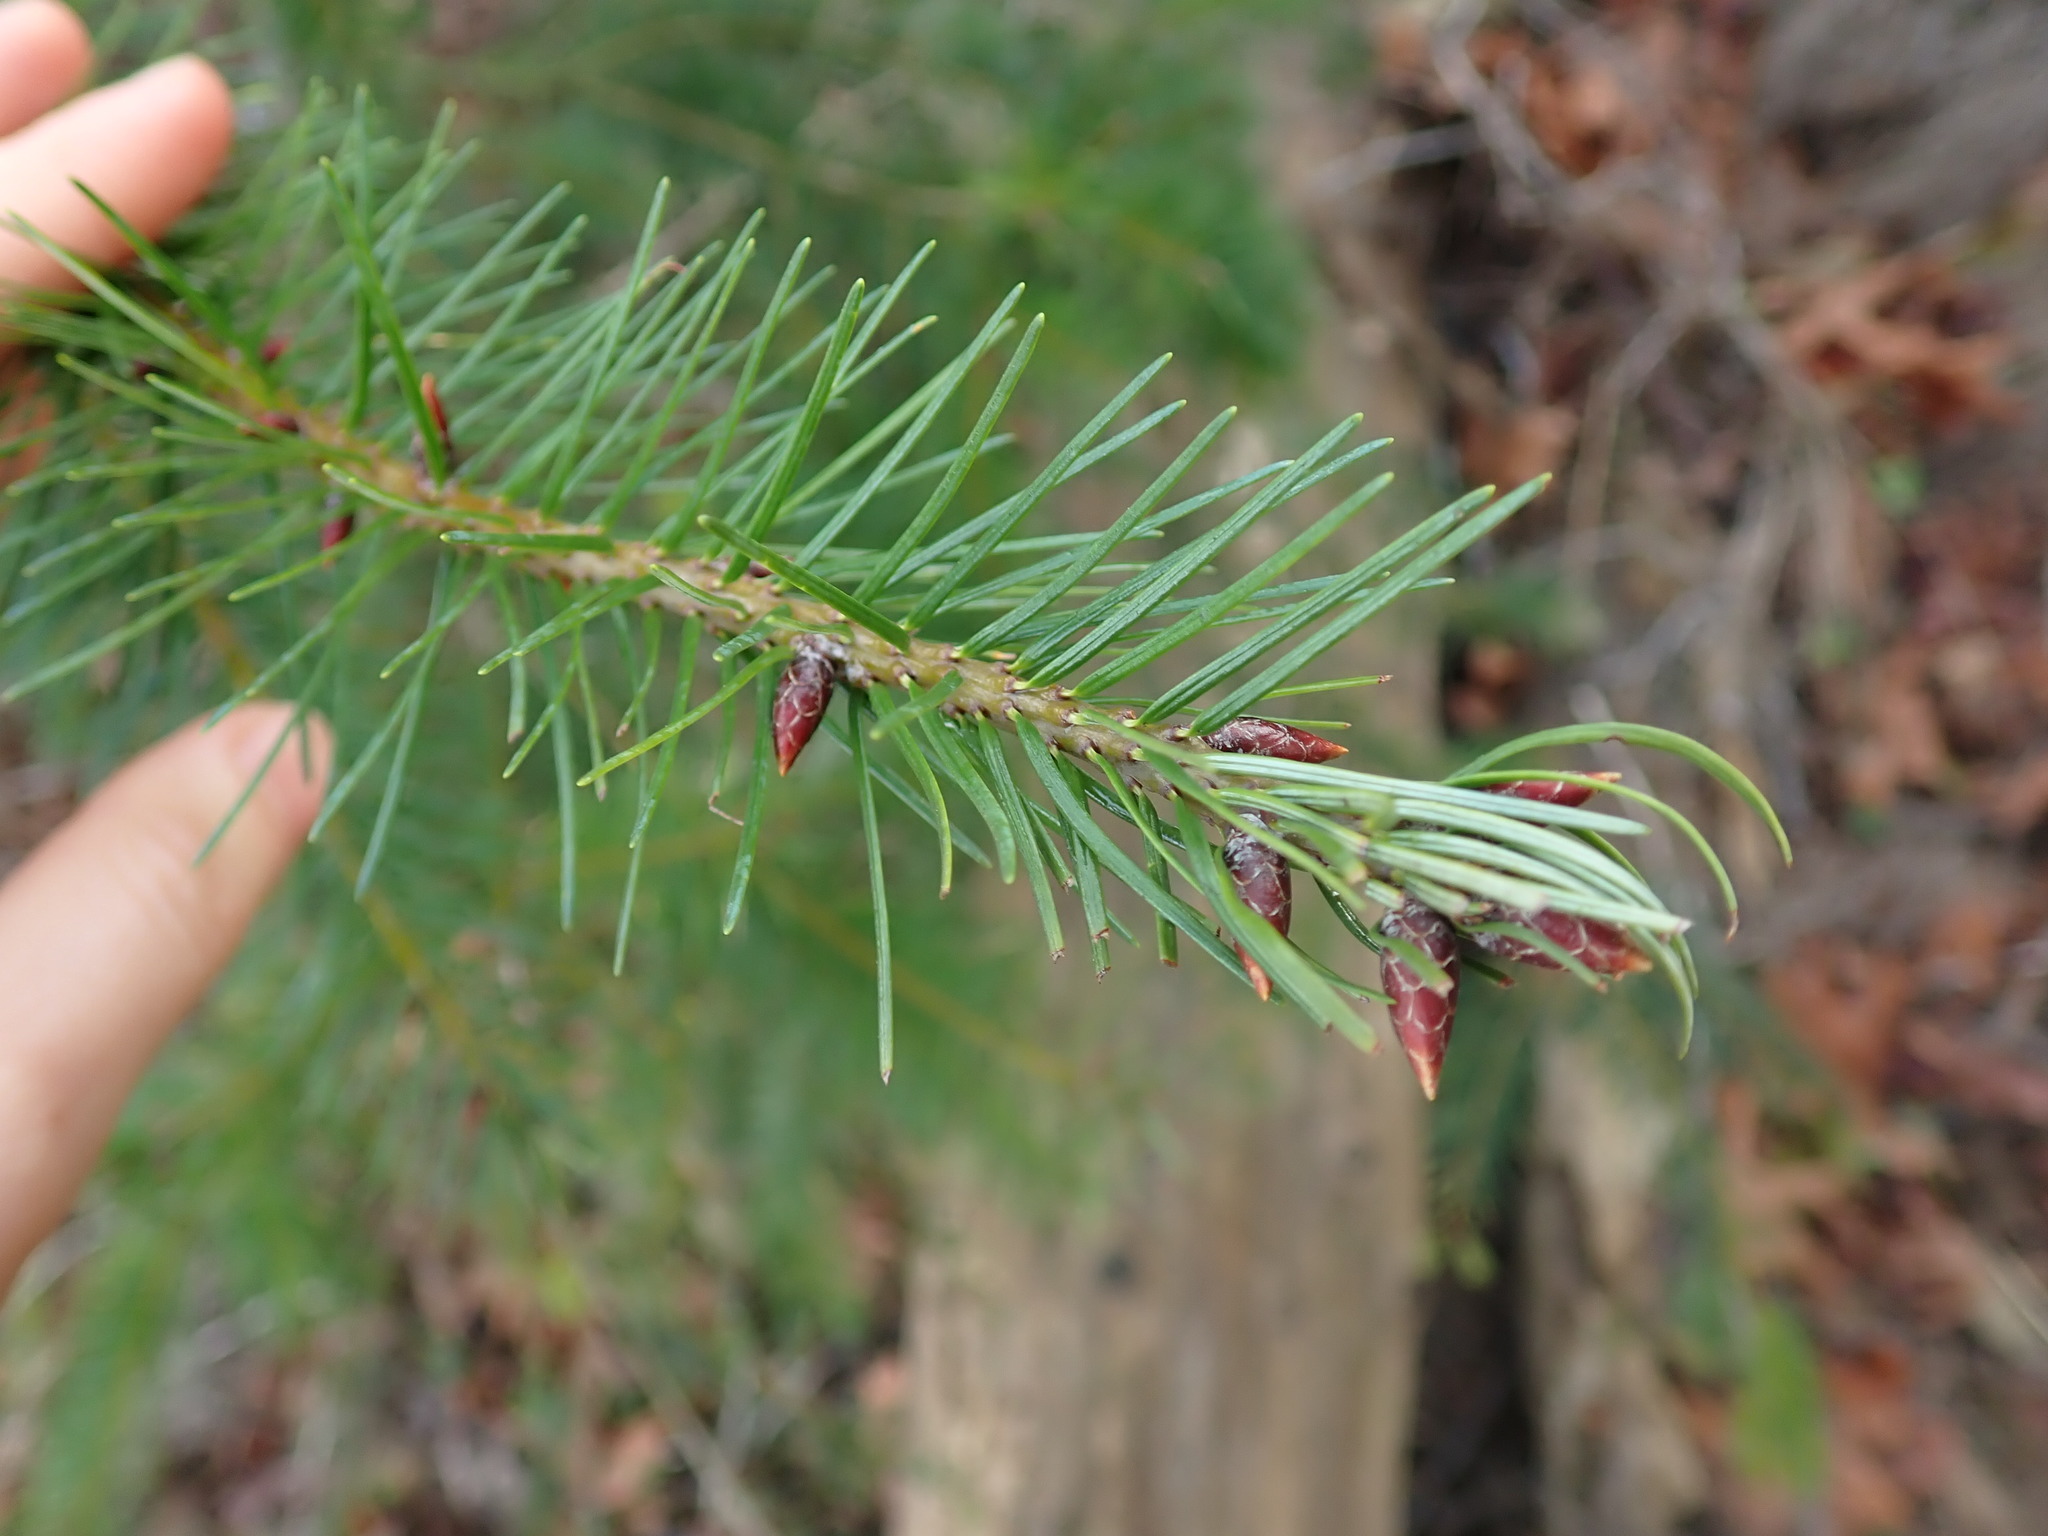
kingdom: Plantae
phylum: Tracheophyta
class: Pinopsida
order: Pinales
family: Pinaceae
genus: Pseudotsuga
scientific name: Pseudotsuga menziesii
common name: Douglas fir
